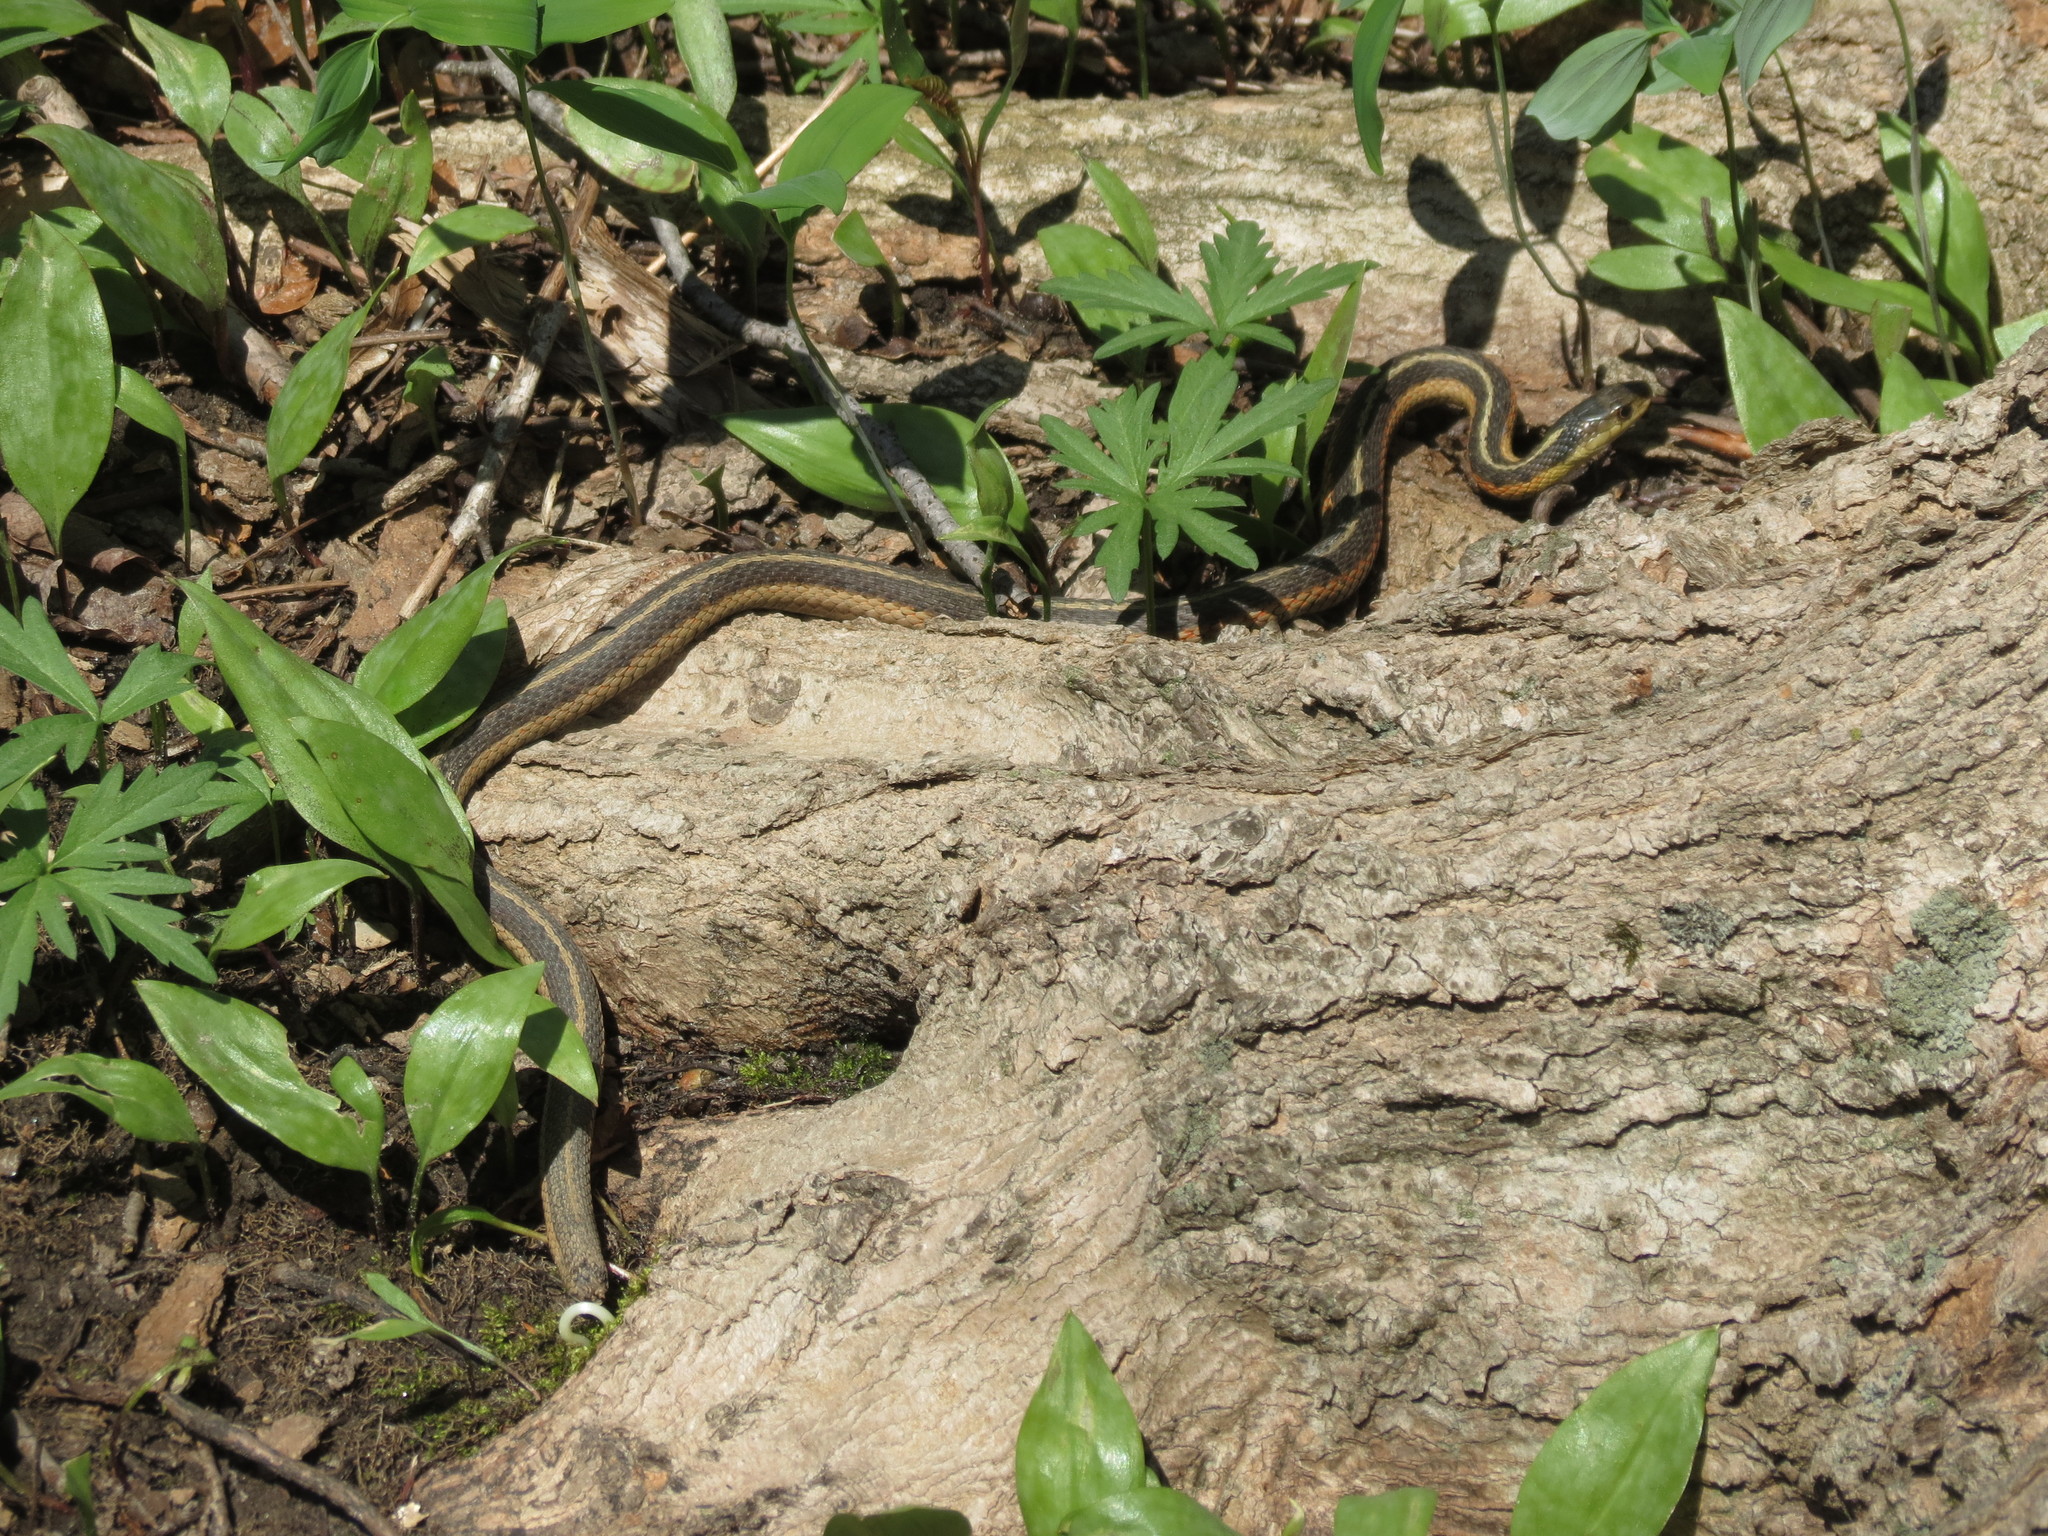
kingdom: Animalia
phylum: Chordata
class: Squamata
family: Colubridae
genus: Thamnophis
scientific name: Thamnophis sirtalis
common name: Common garter snake
